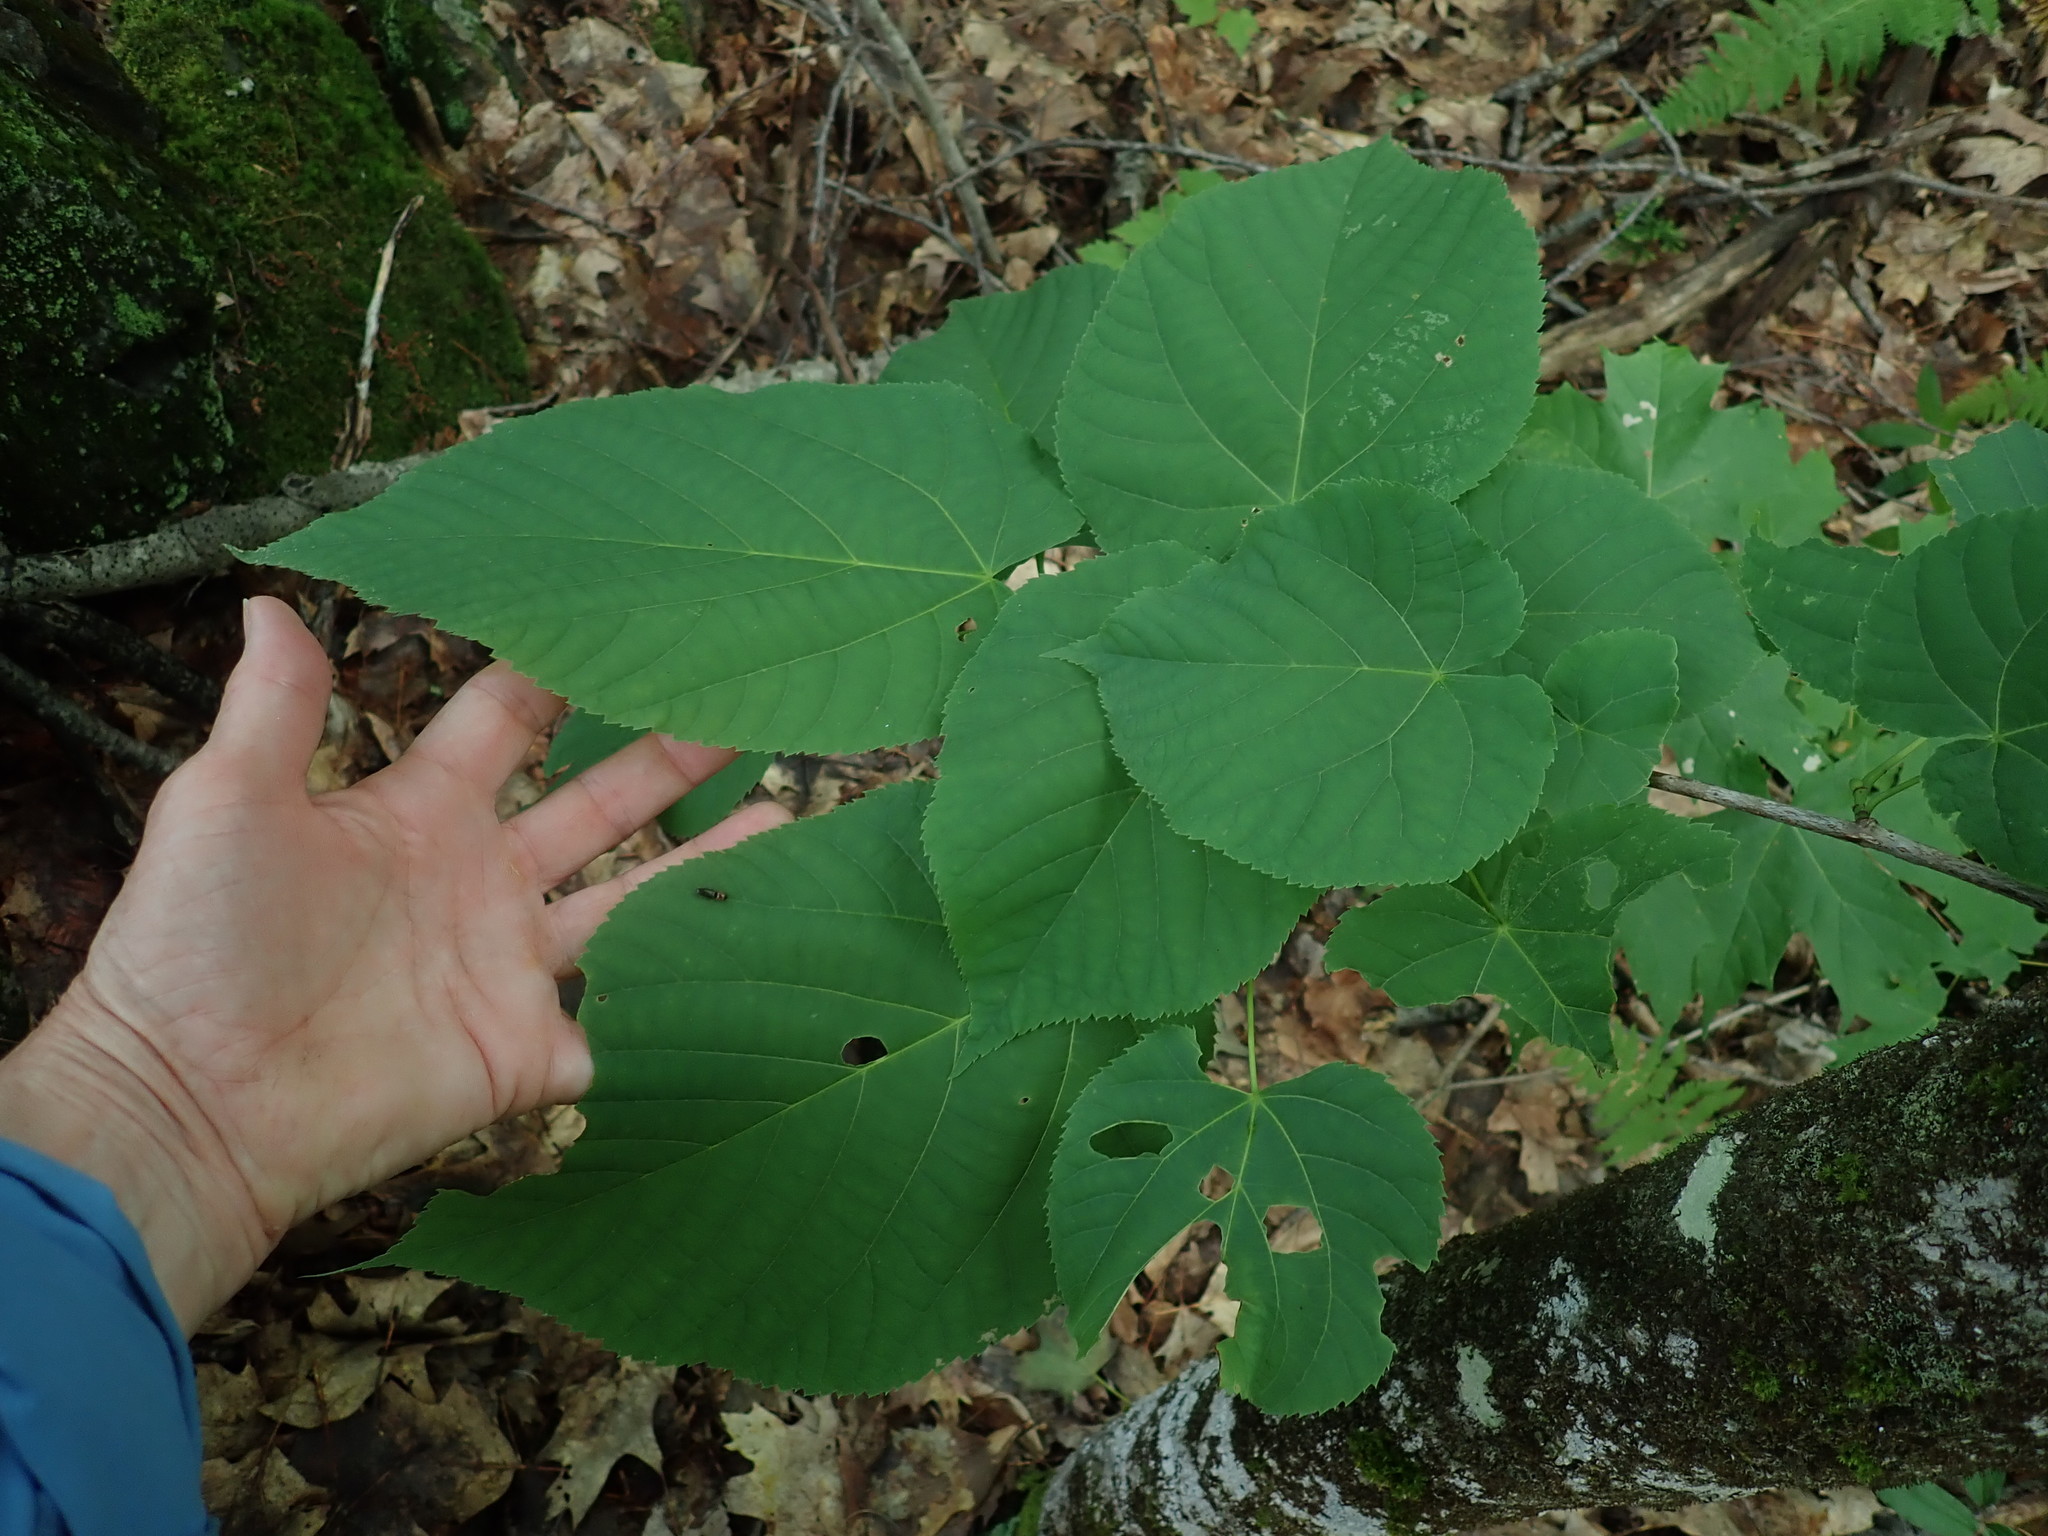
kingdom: Plantae
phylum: Tracheophyta
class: Magnoliopsida
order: Malvales
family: Malvaceae
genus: Tilia
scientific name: Tilia americana
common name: Basswood
